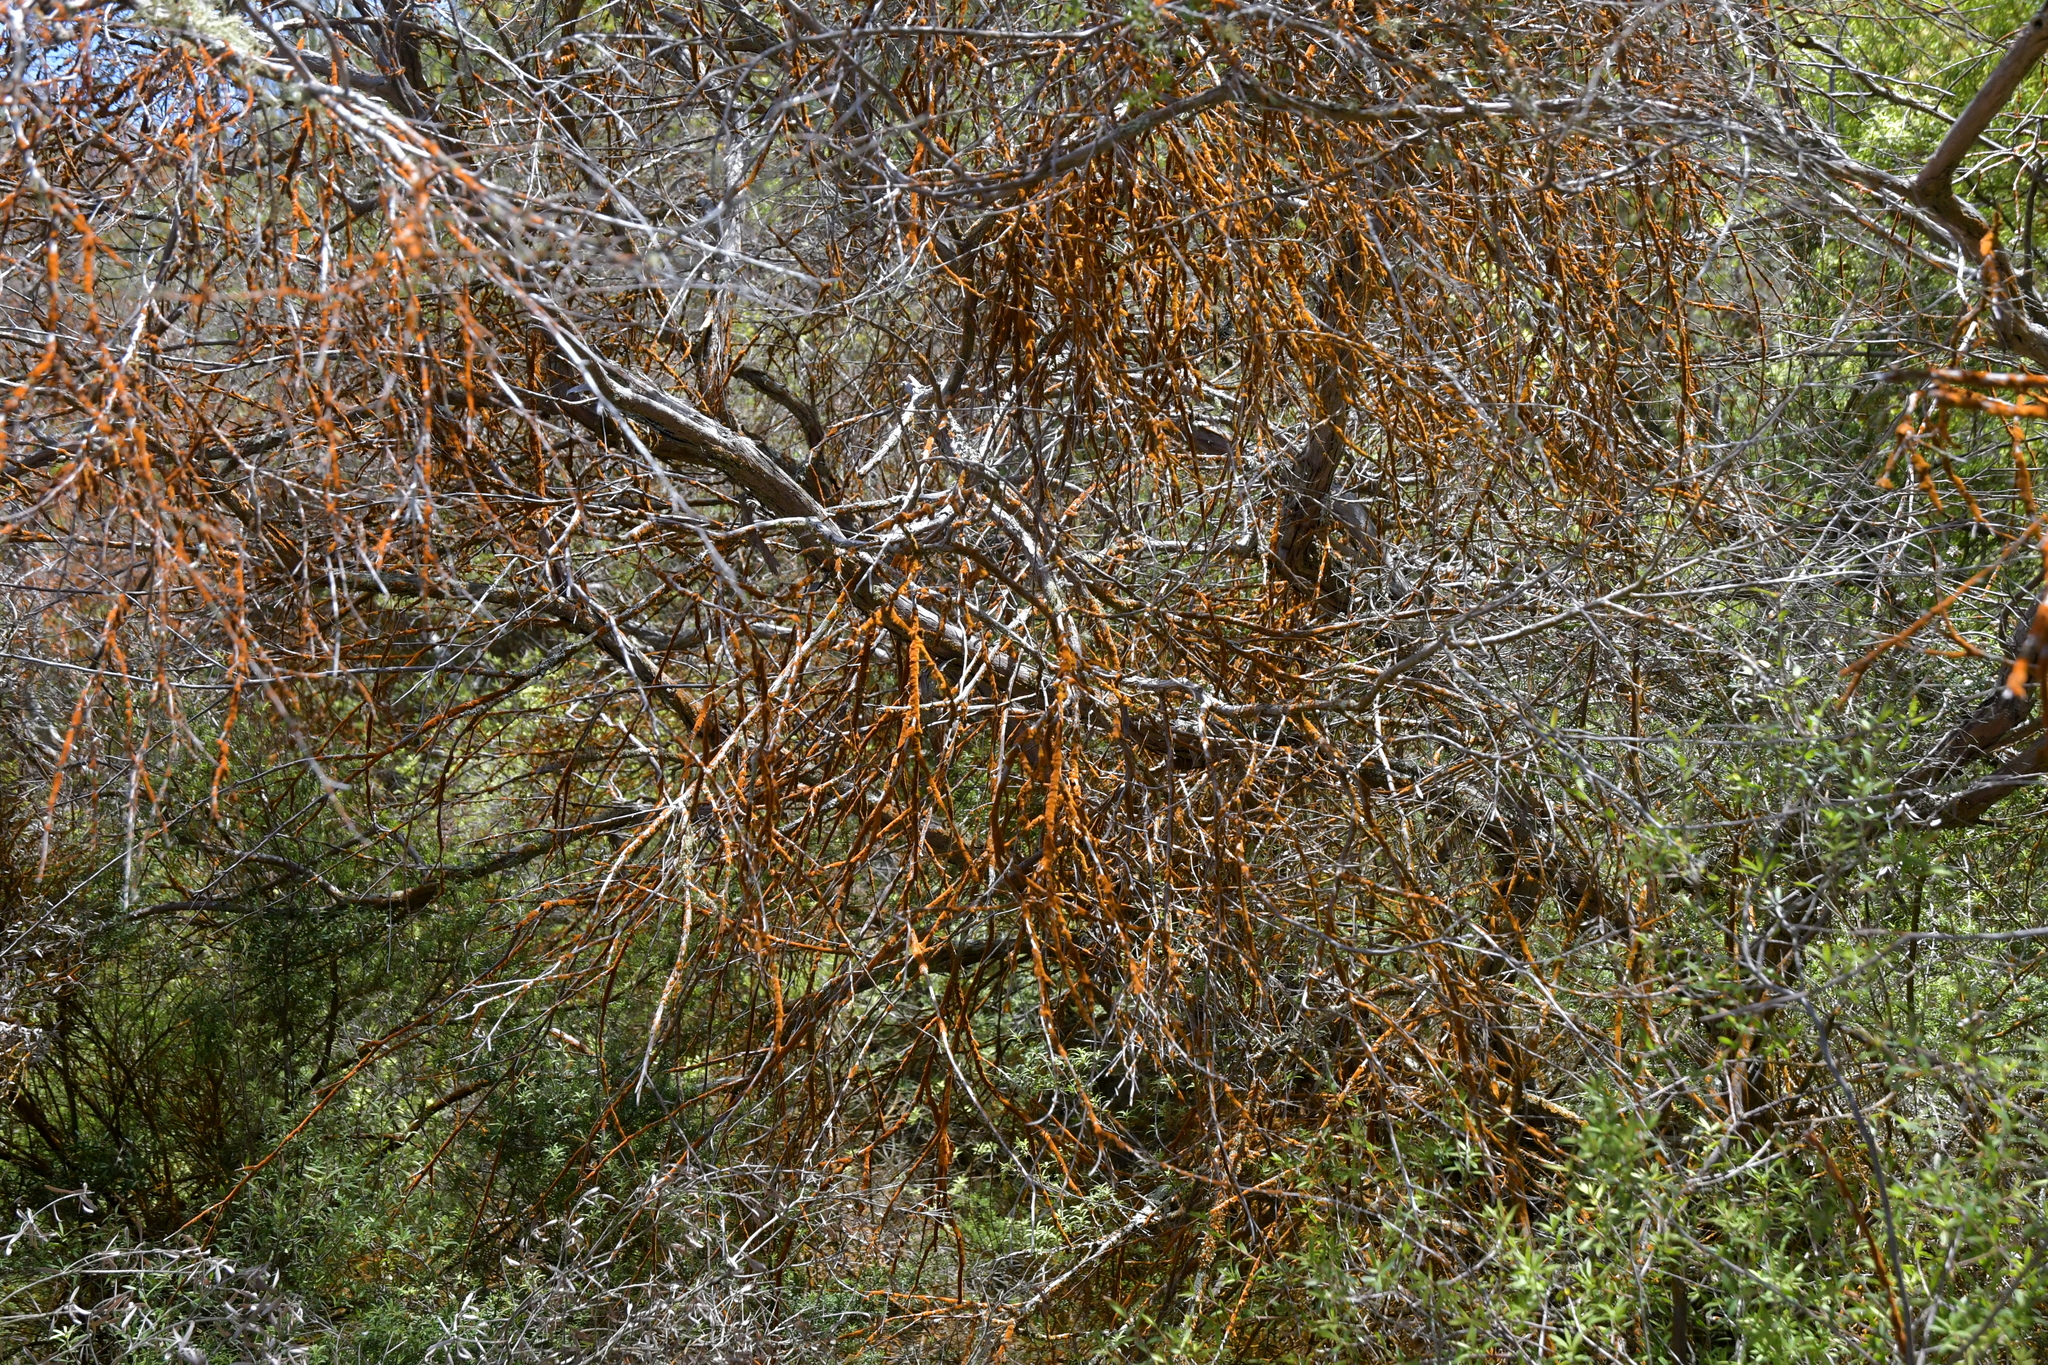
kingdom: Plantae
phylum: Chlorophyta
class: Ulvophyceae
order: Trentepohliales
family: Trentepohliaceae
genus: Trentepohlia
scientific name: Trentepohlia
